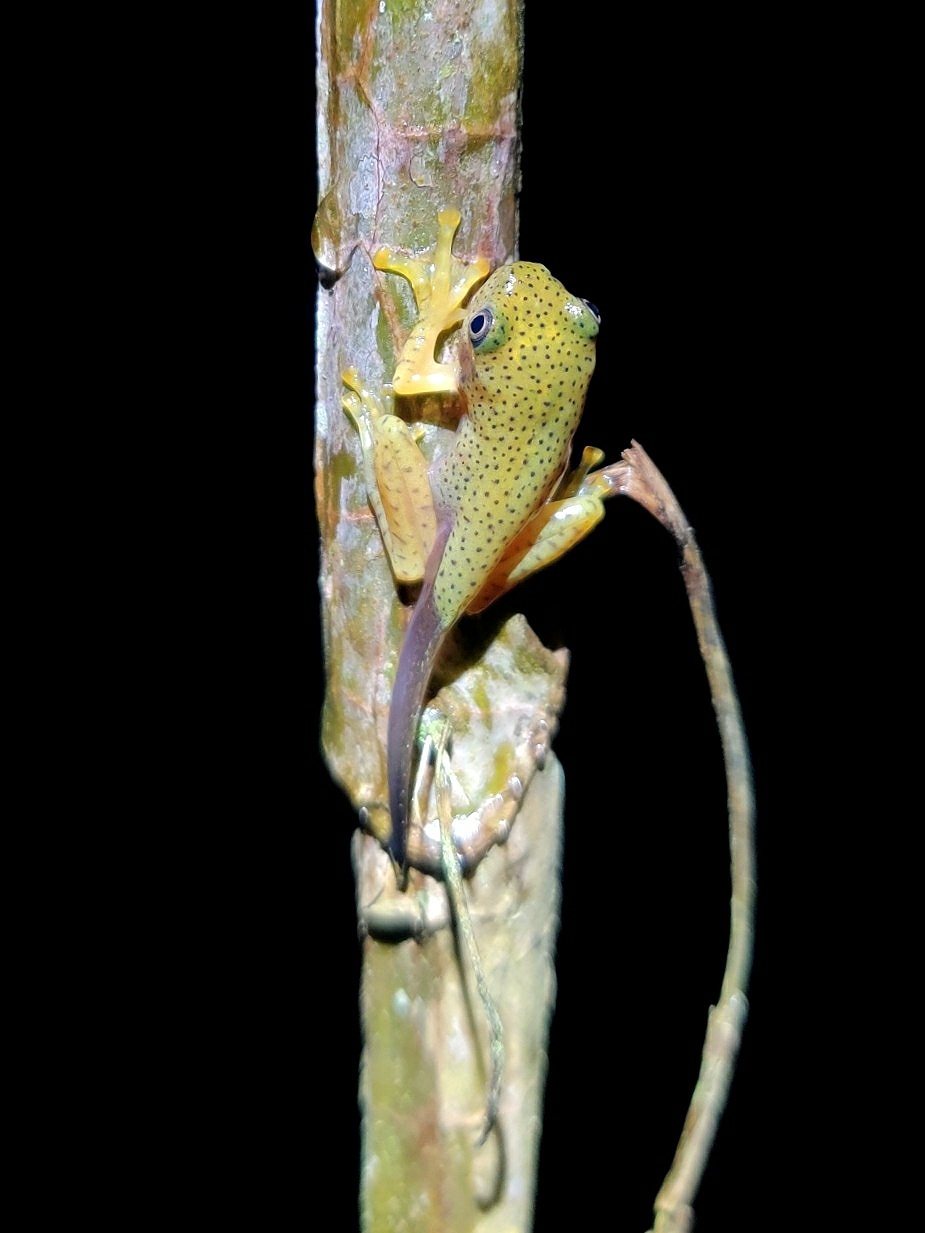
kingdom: Animalia
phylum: Chordata
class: Amphibia
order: Anura
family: Rhacophoridae
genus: Rhacophorus
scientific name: Rhacophorus malabaricus
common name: Malabar gliding frog
